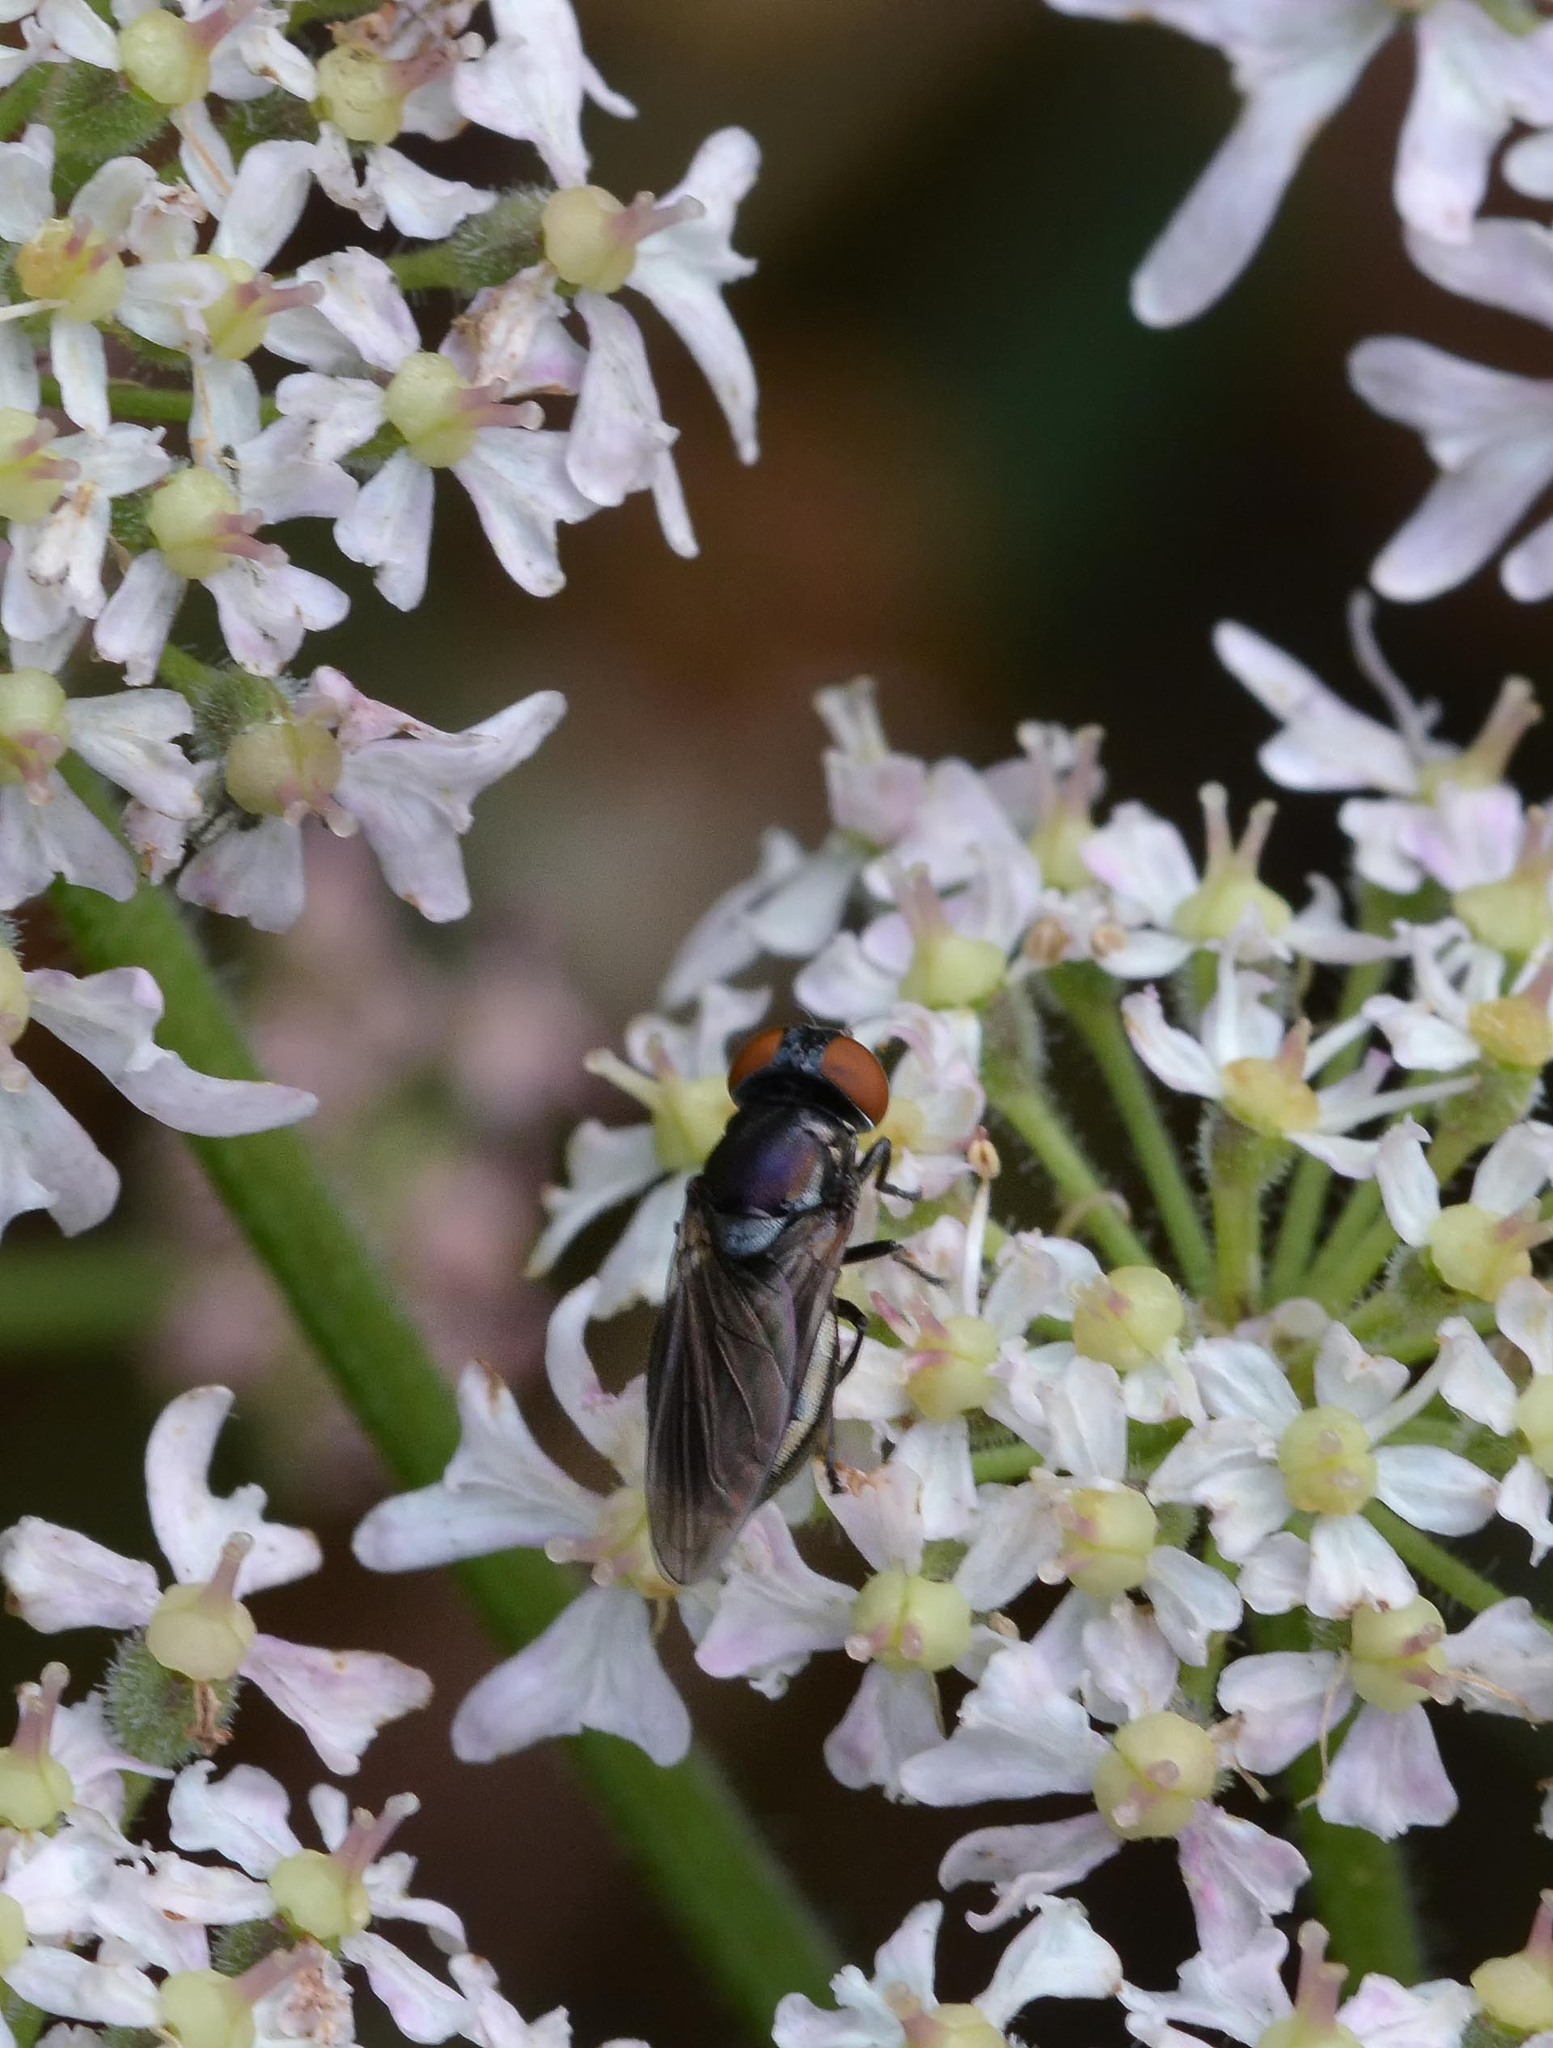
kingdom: Animalia
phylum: Arthropoda
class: Insecta
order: Diptera
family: Syrphidae
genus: Chrysogaster
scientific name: Chrysogaster solstitialis
